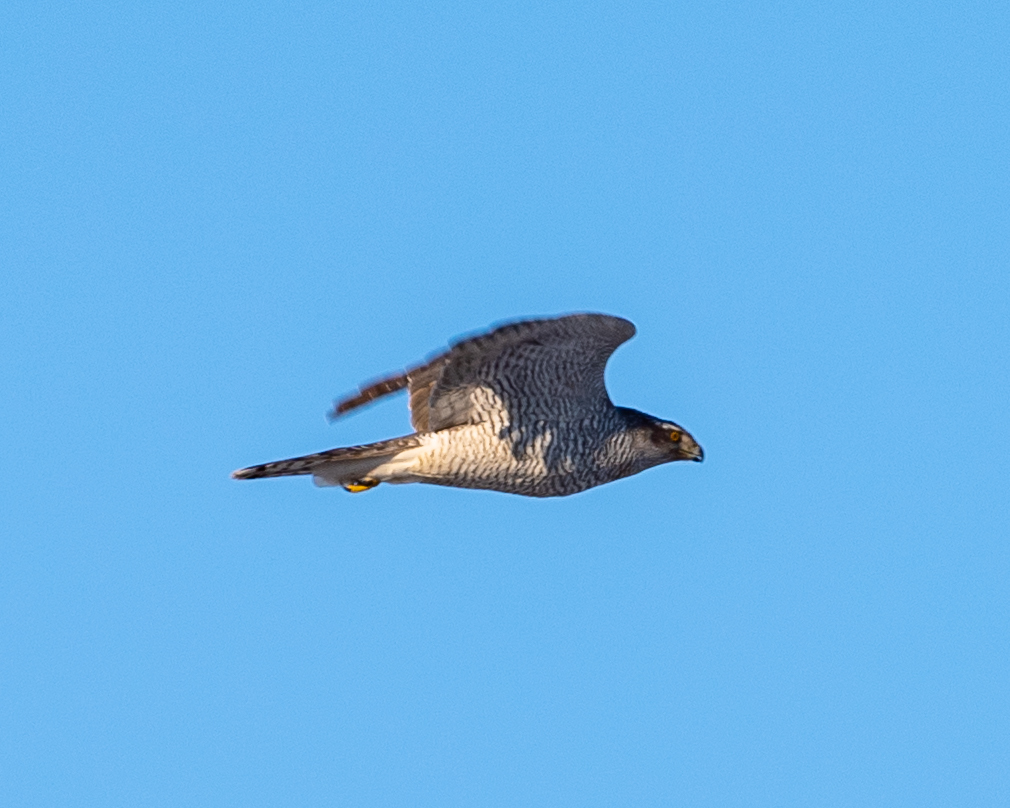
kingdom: Animalia
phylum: Chordata
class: Aves
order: Accipitriformes
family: Accipitridae
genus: Accipiter
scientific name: Accipiter gentilis
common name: Northern goshawk
